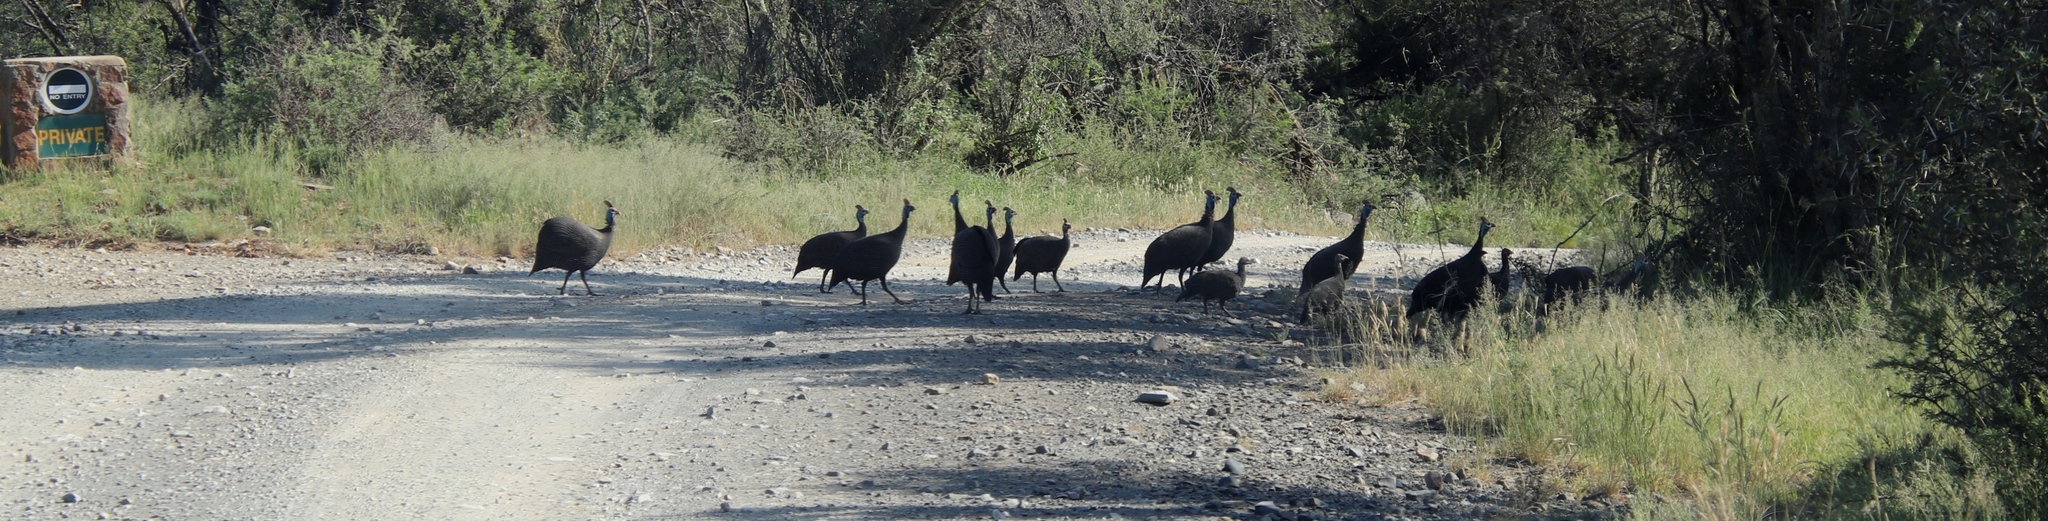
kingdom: Animalia
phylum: Chordata
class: Aves
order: Galliformes
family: Numididae
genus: Numida
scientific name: Numida meleagris
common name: Helmeted guineafowl
